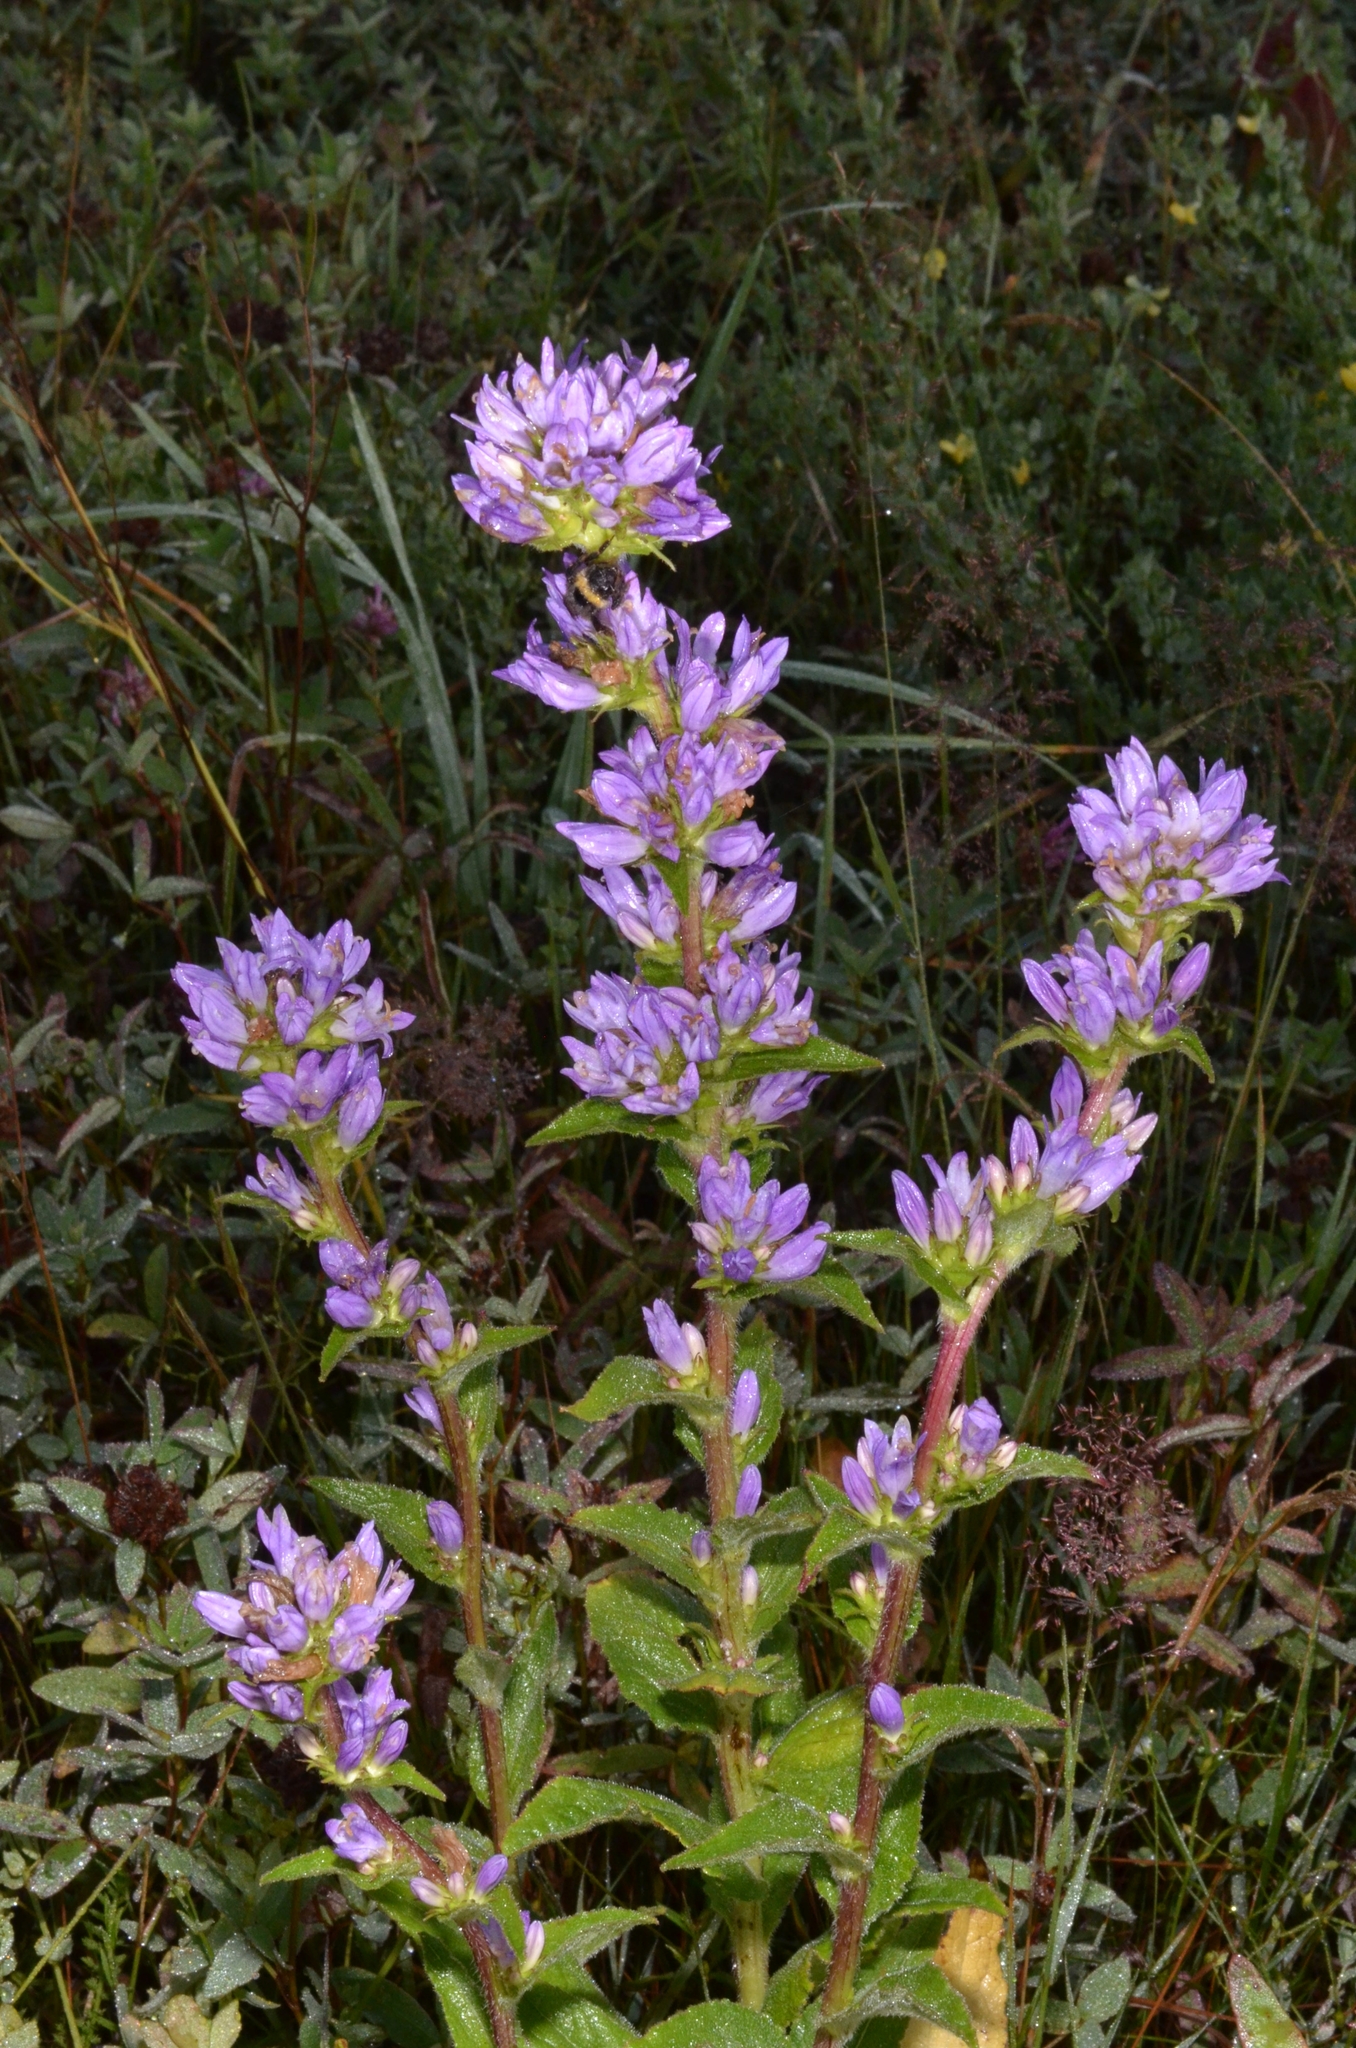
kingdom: Plantae
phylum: Tracheophyta
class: Magnoliopsida
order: Asterales
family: Campanulaceae
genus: Campanula
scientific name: Campanula glomerata
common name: Clustered bellflower
